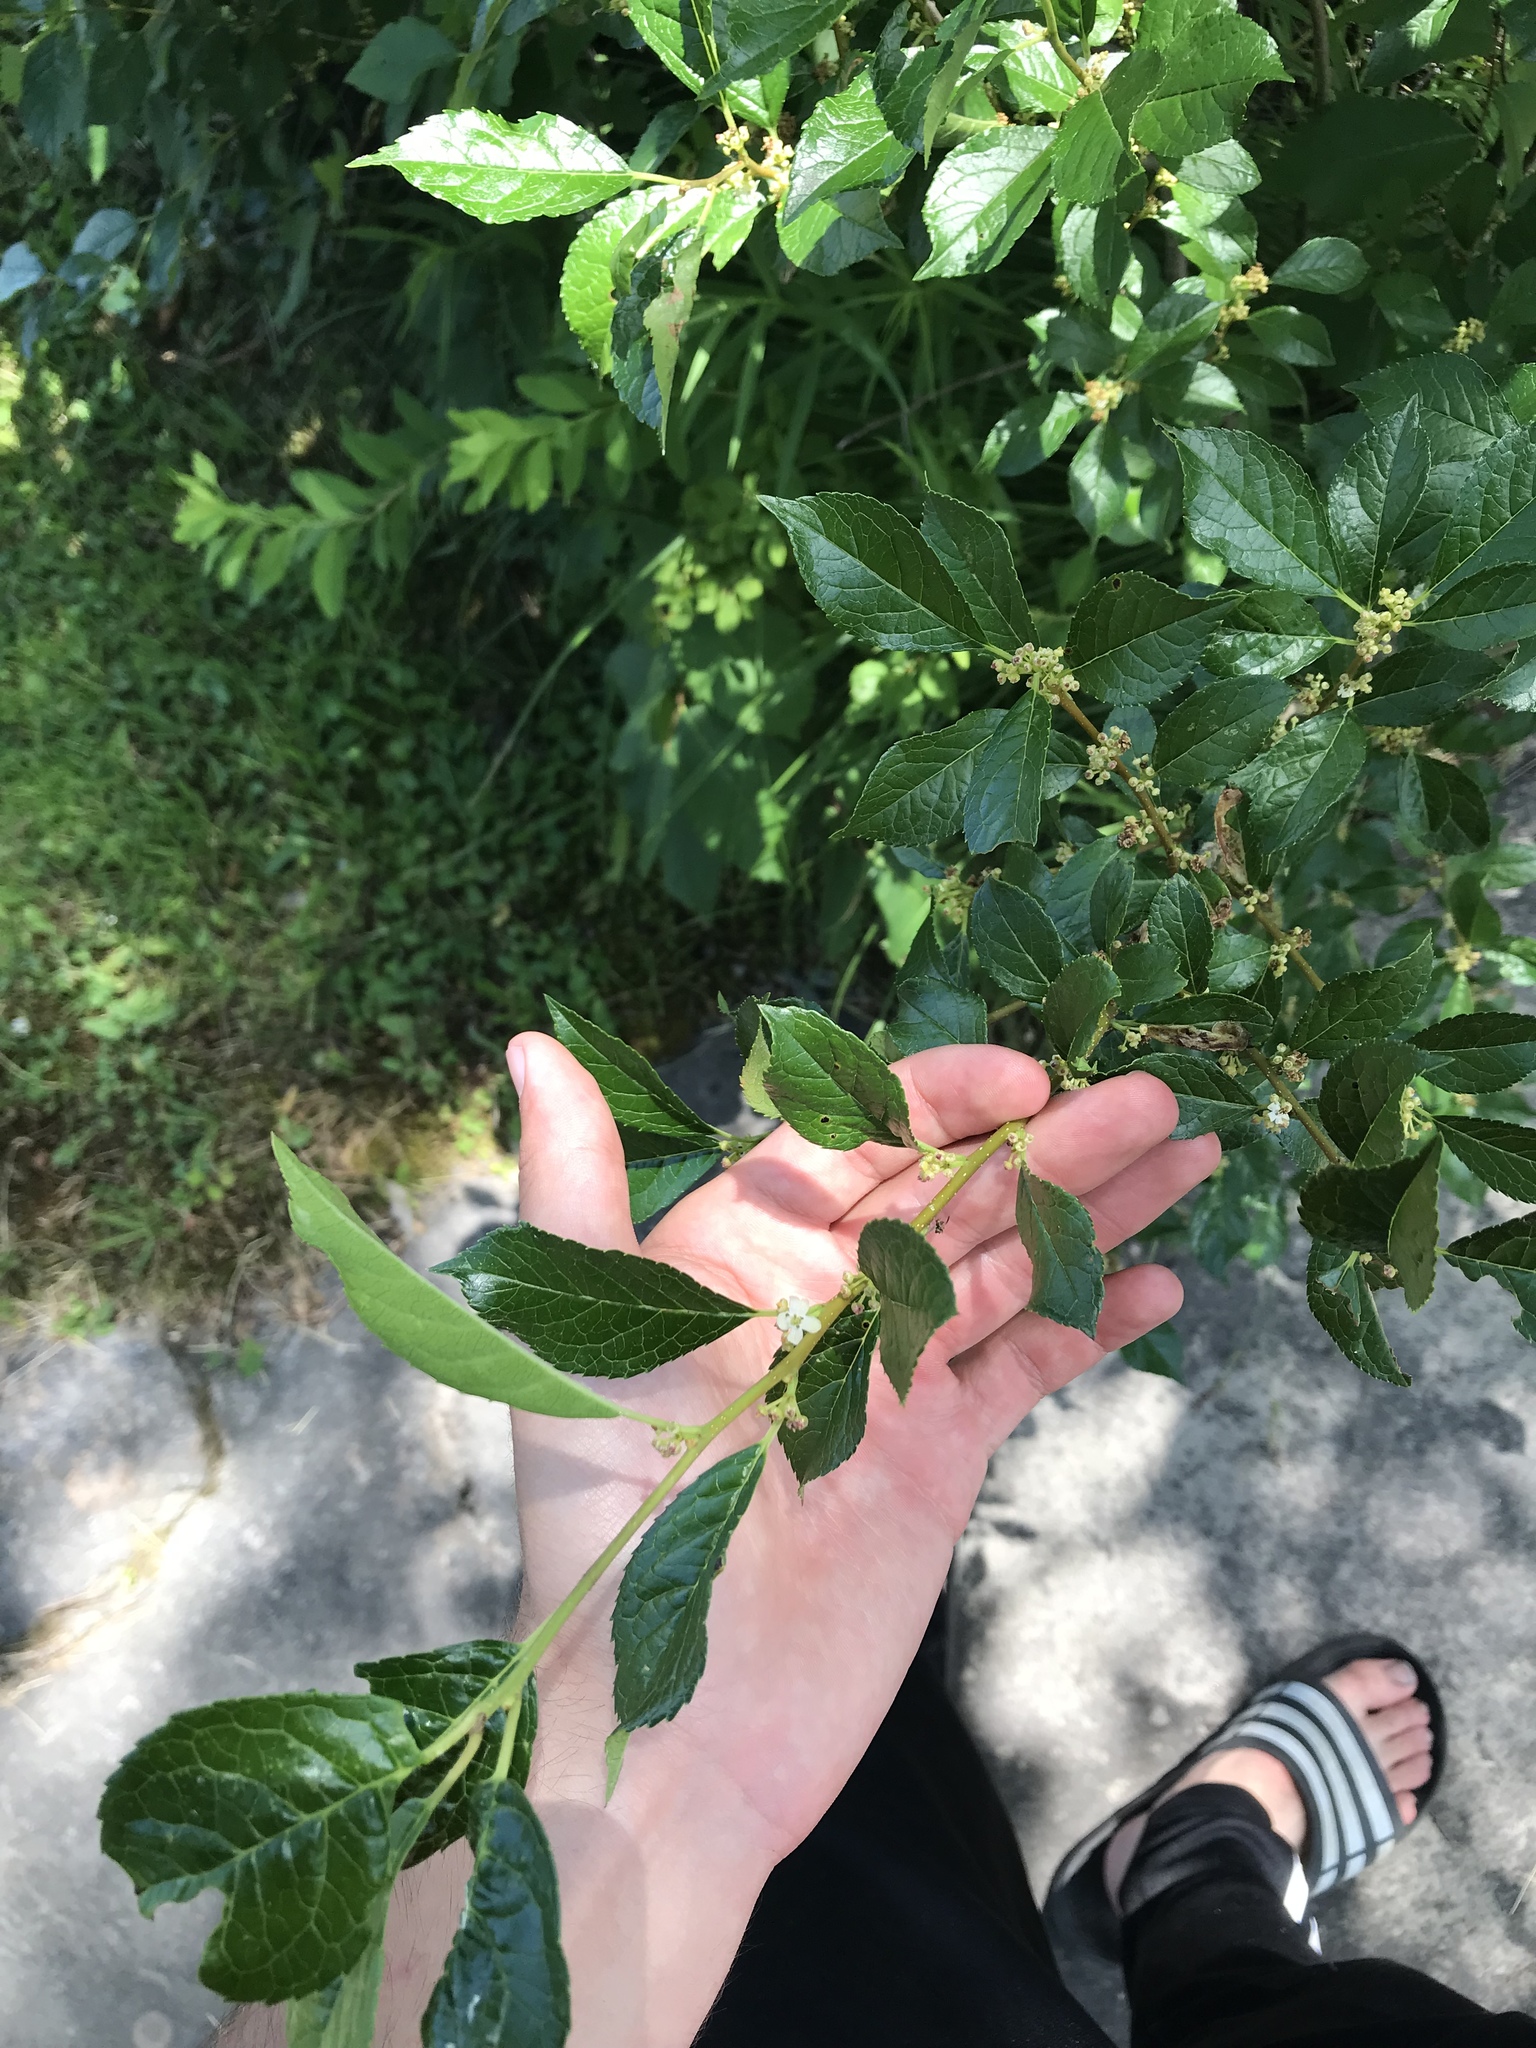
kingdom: Plantae
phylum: Tracheophyta
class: Magnoliopsida
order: Aquifoliales
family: Aquifoliaceae
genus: Ilex
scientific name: Ilex verticillata
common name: Virginia winterberry
